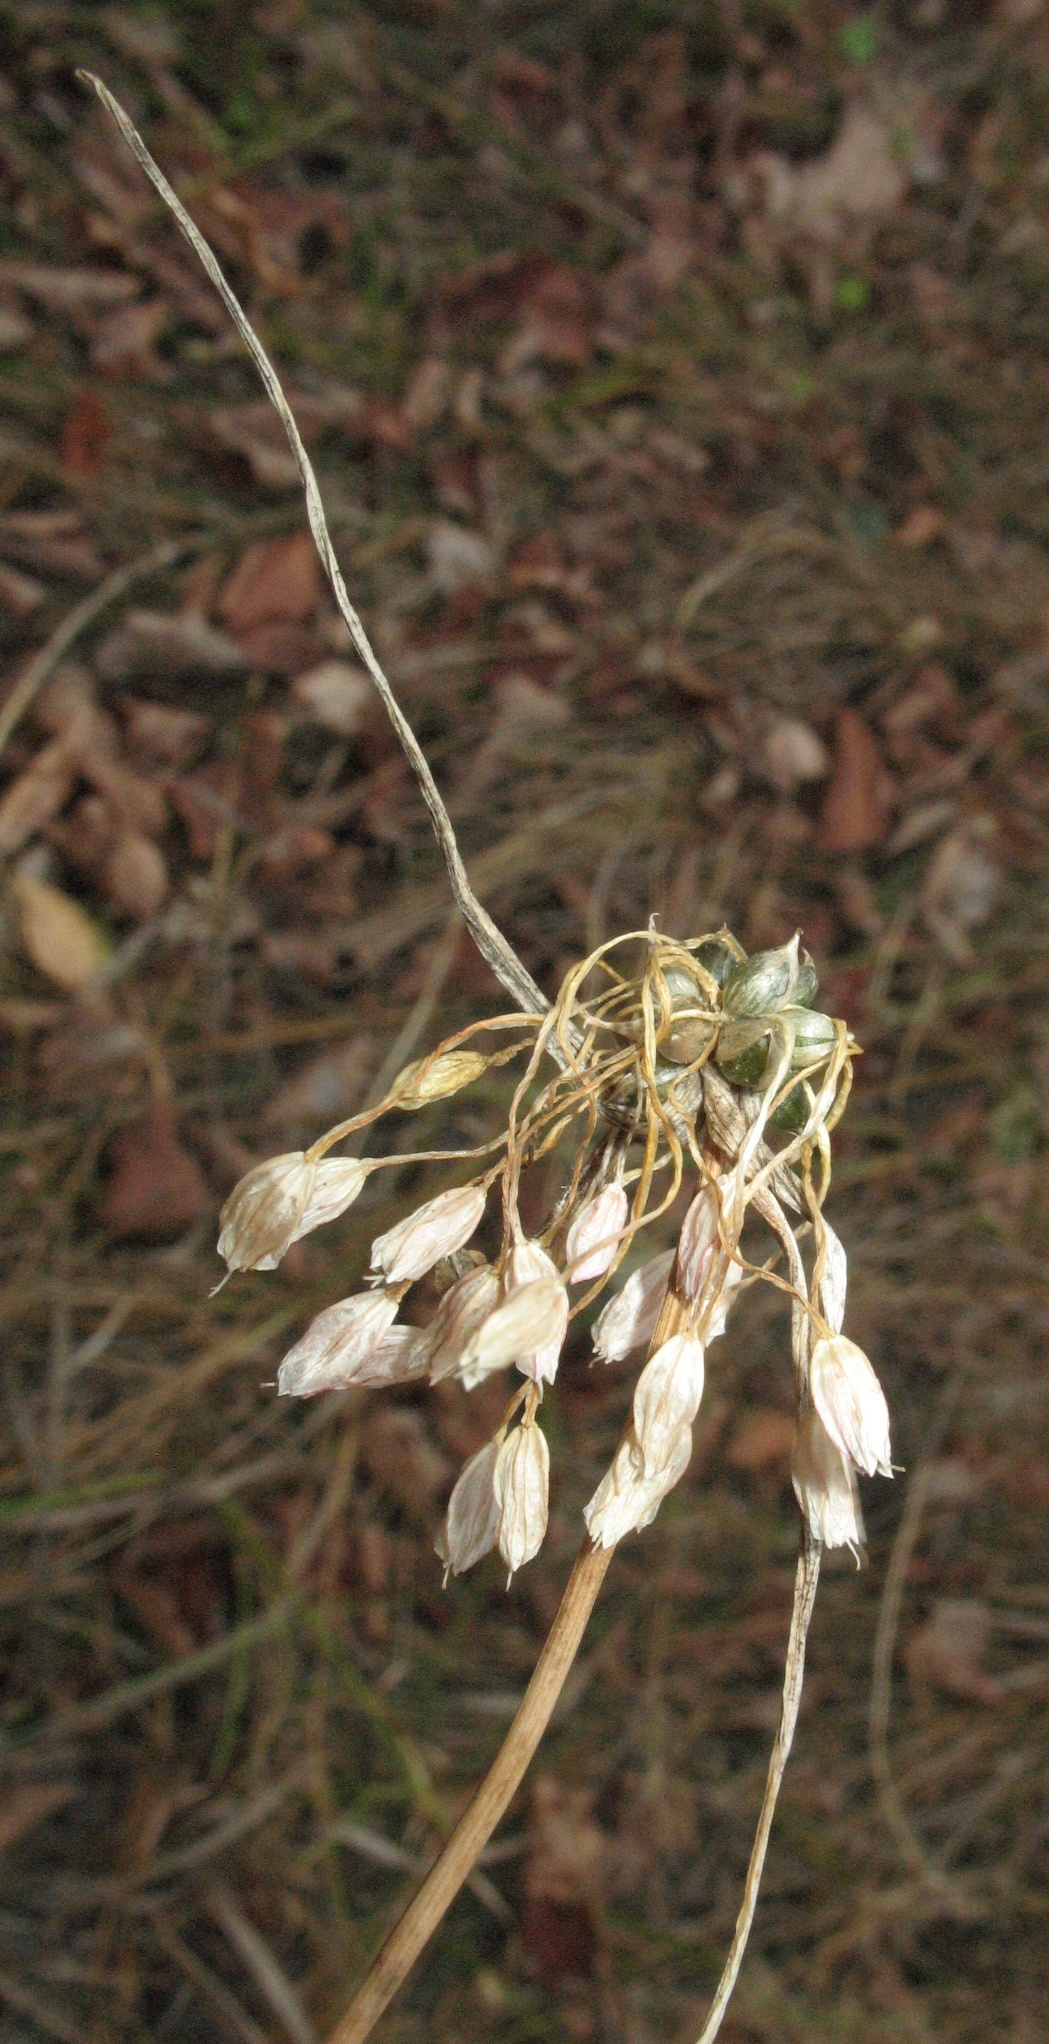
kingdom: Plantae
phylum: Tracheophyta
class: Liliopsida
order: Asparagales
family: Amaryllidaceae
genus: Allium
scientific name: Allium oleraceum
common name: Field garlic
